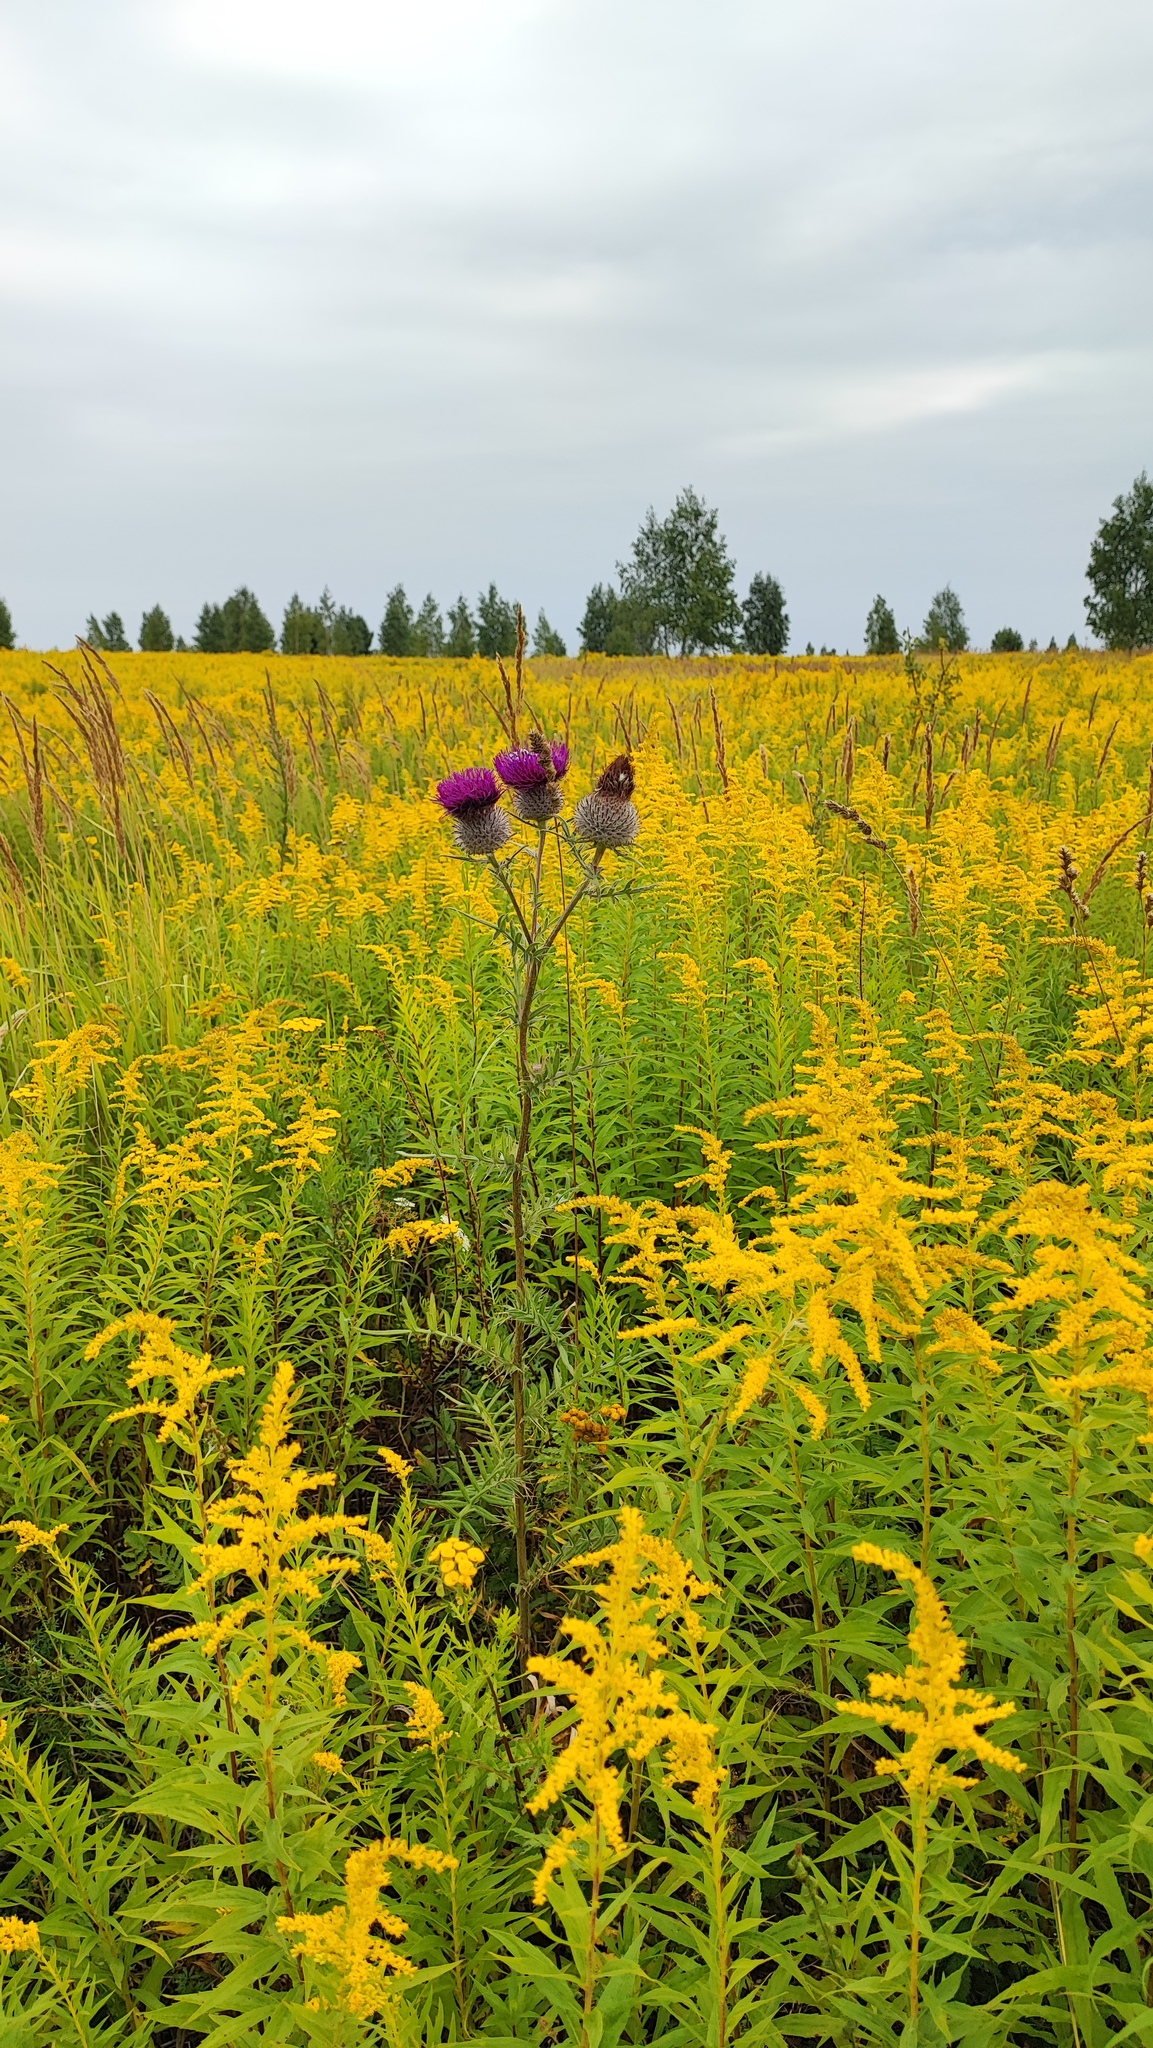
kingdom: Plantae
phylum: Tracheophyta
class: Magnoliopsida
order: Asterales
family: Asteraceae
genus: Solidago
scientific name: Solidago canadensis
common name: Canada goldenrod
